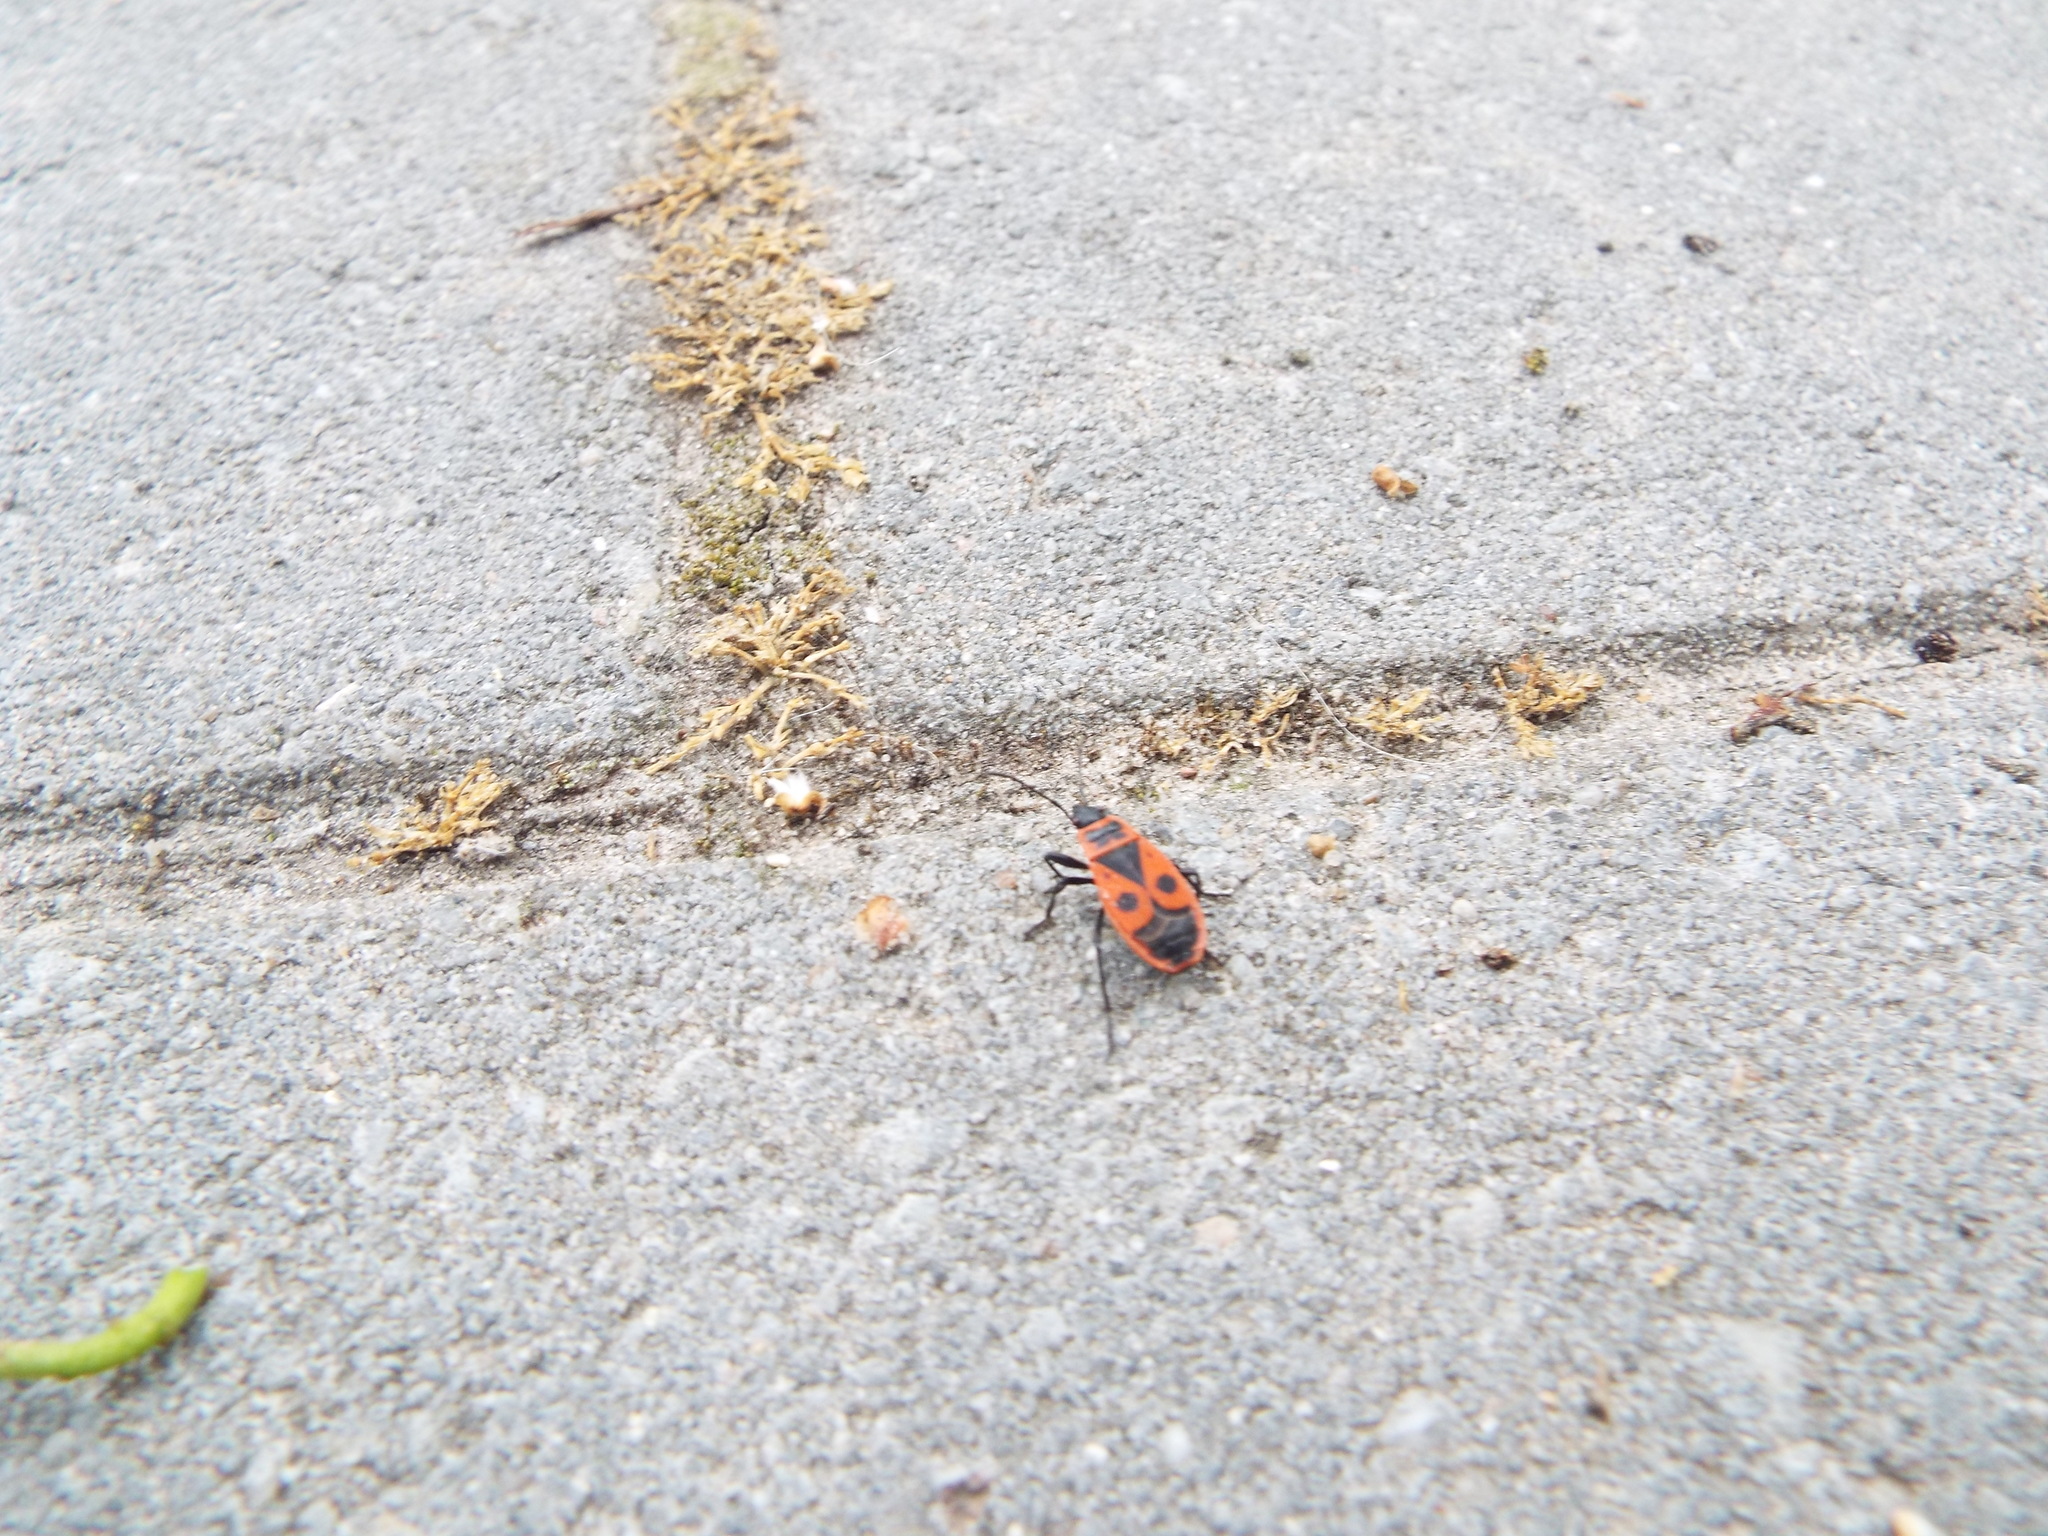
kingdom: Animalia
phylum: Arthropoda
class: Insecta
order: Hemiptera
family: Pyrrhocoridae
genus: Pyrrhocoris
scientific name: Pyrrhocoris apterus
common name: Firebug
